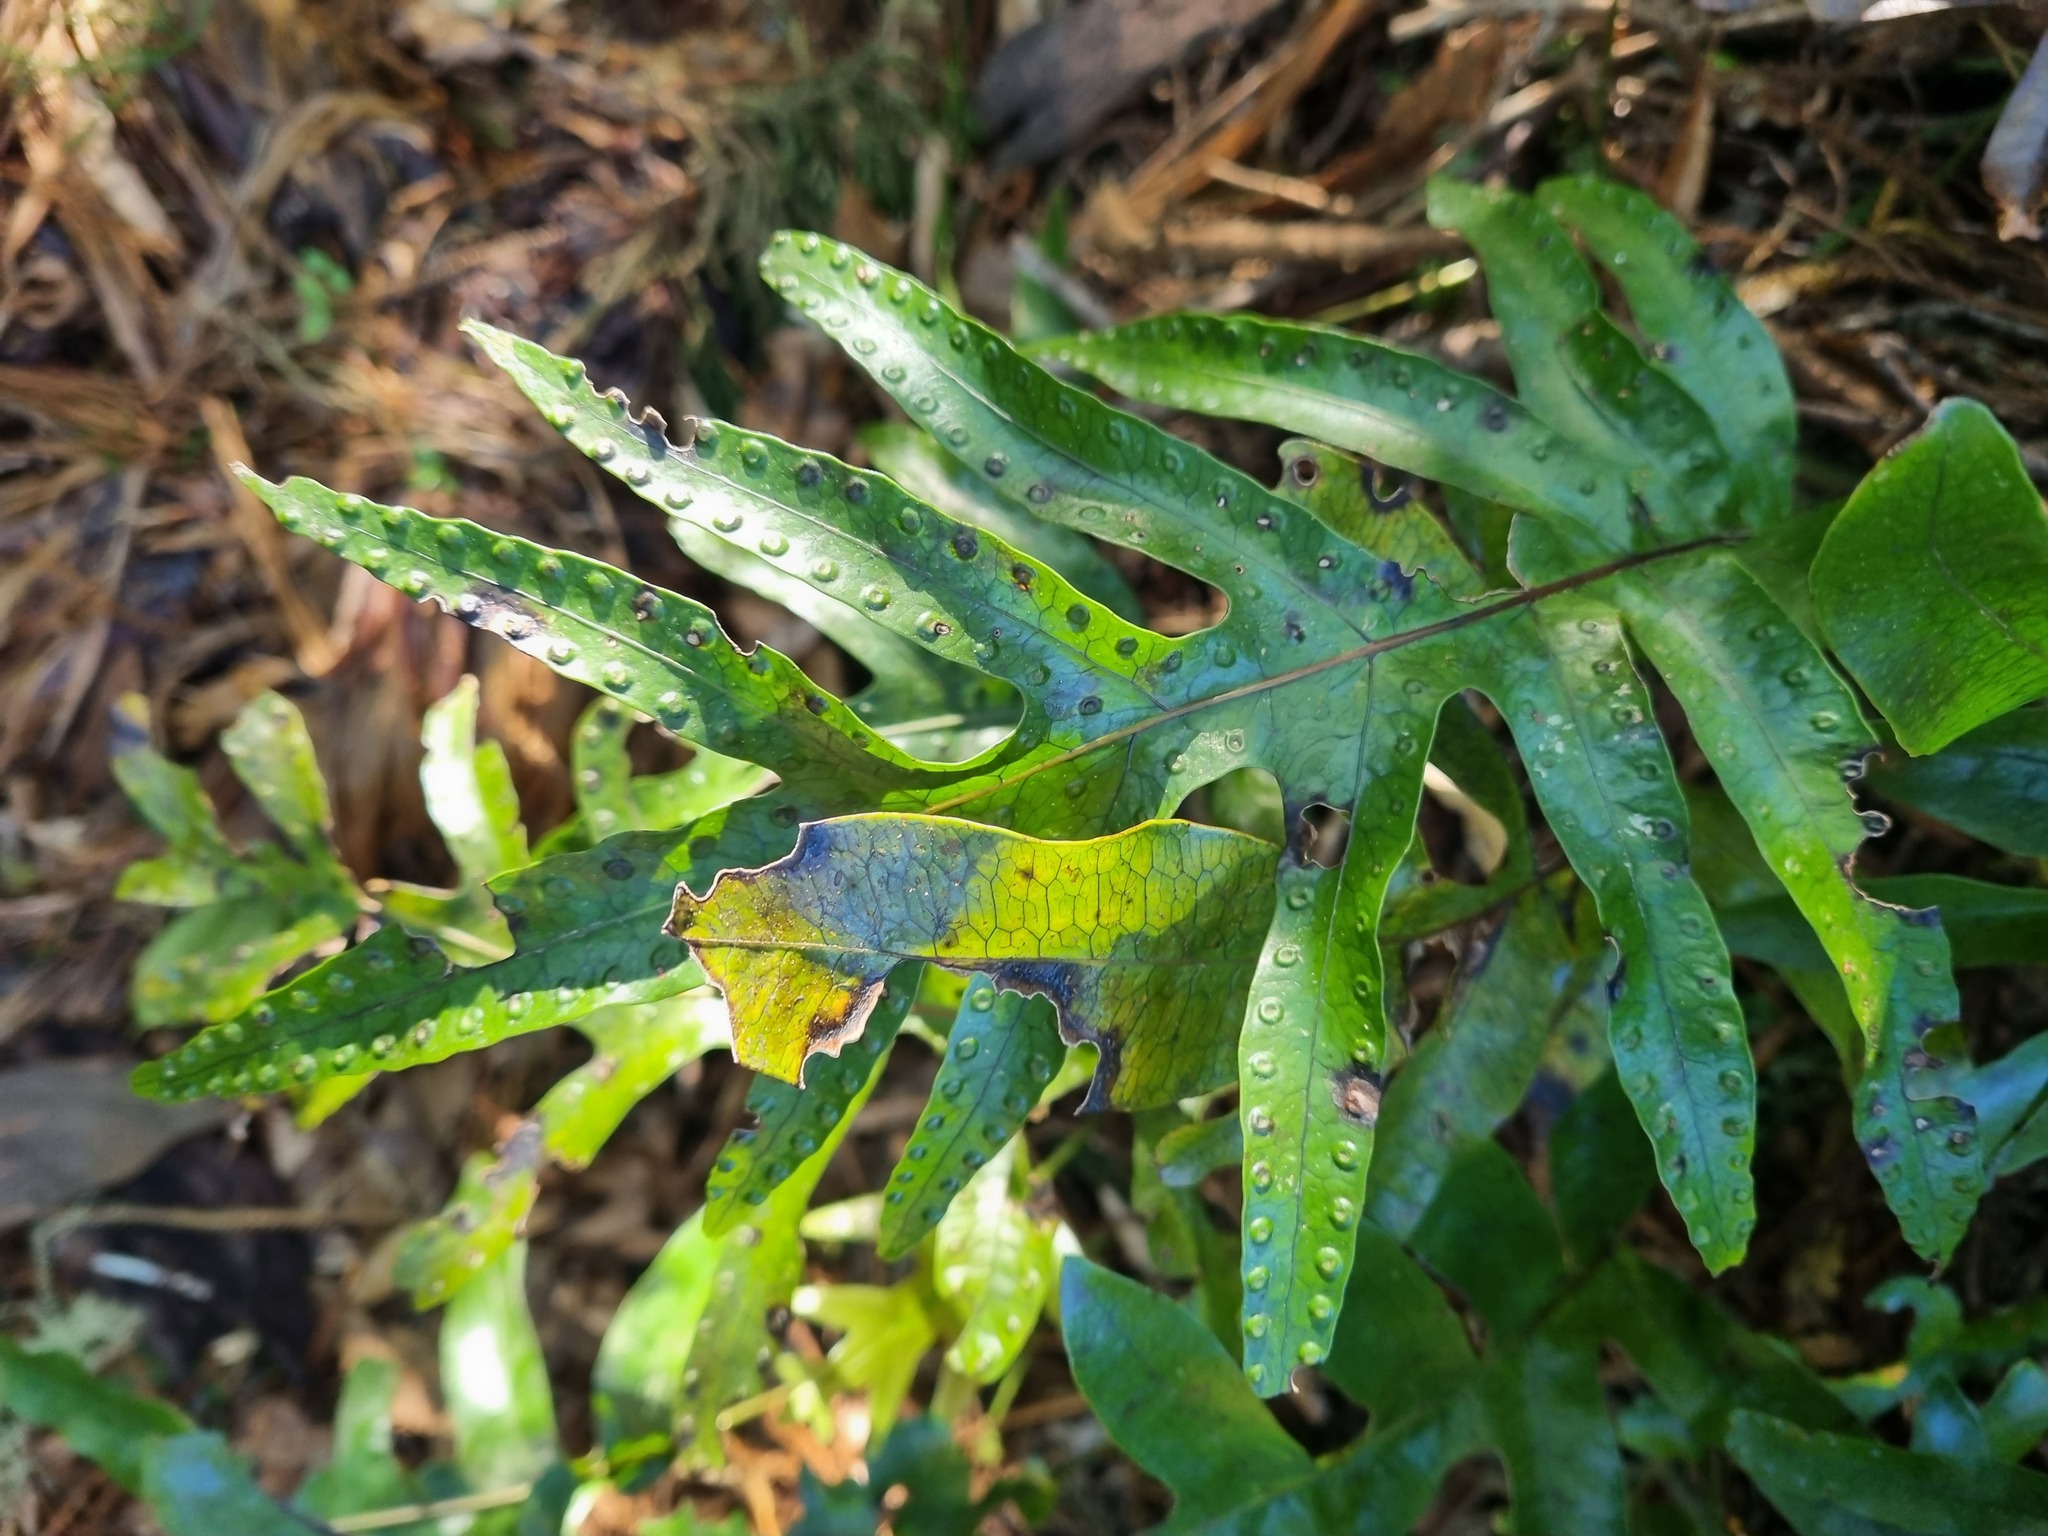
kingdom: Plantae
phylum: Tracheophyta
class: Polypodiopsida
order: Polypodiales
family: Polypodiaceae
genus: Lecanopteris
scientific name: Lecanopteris pustulata
